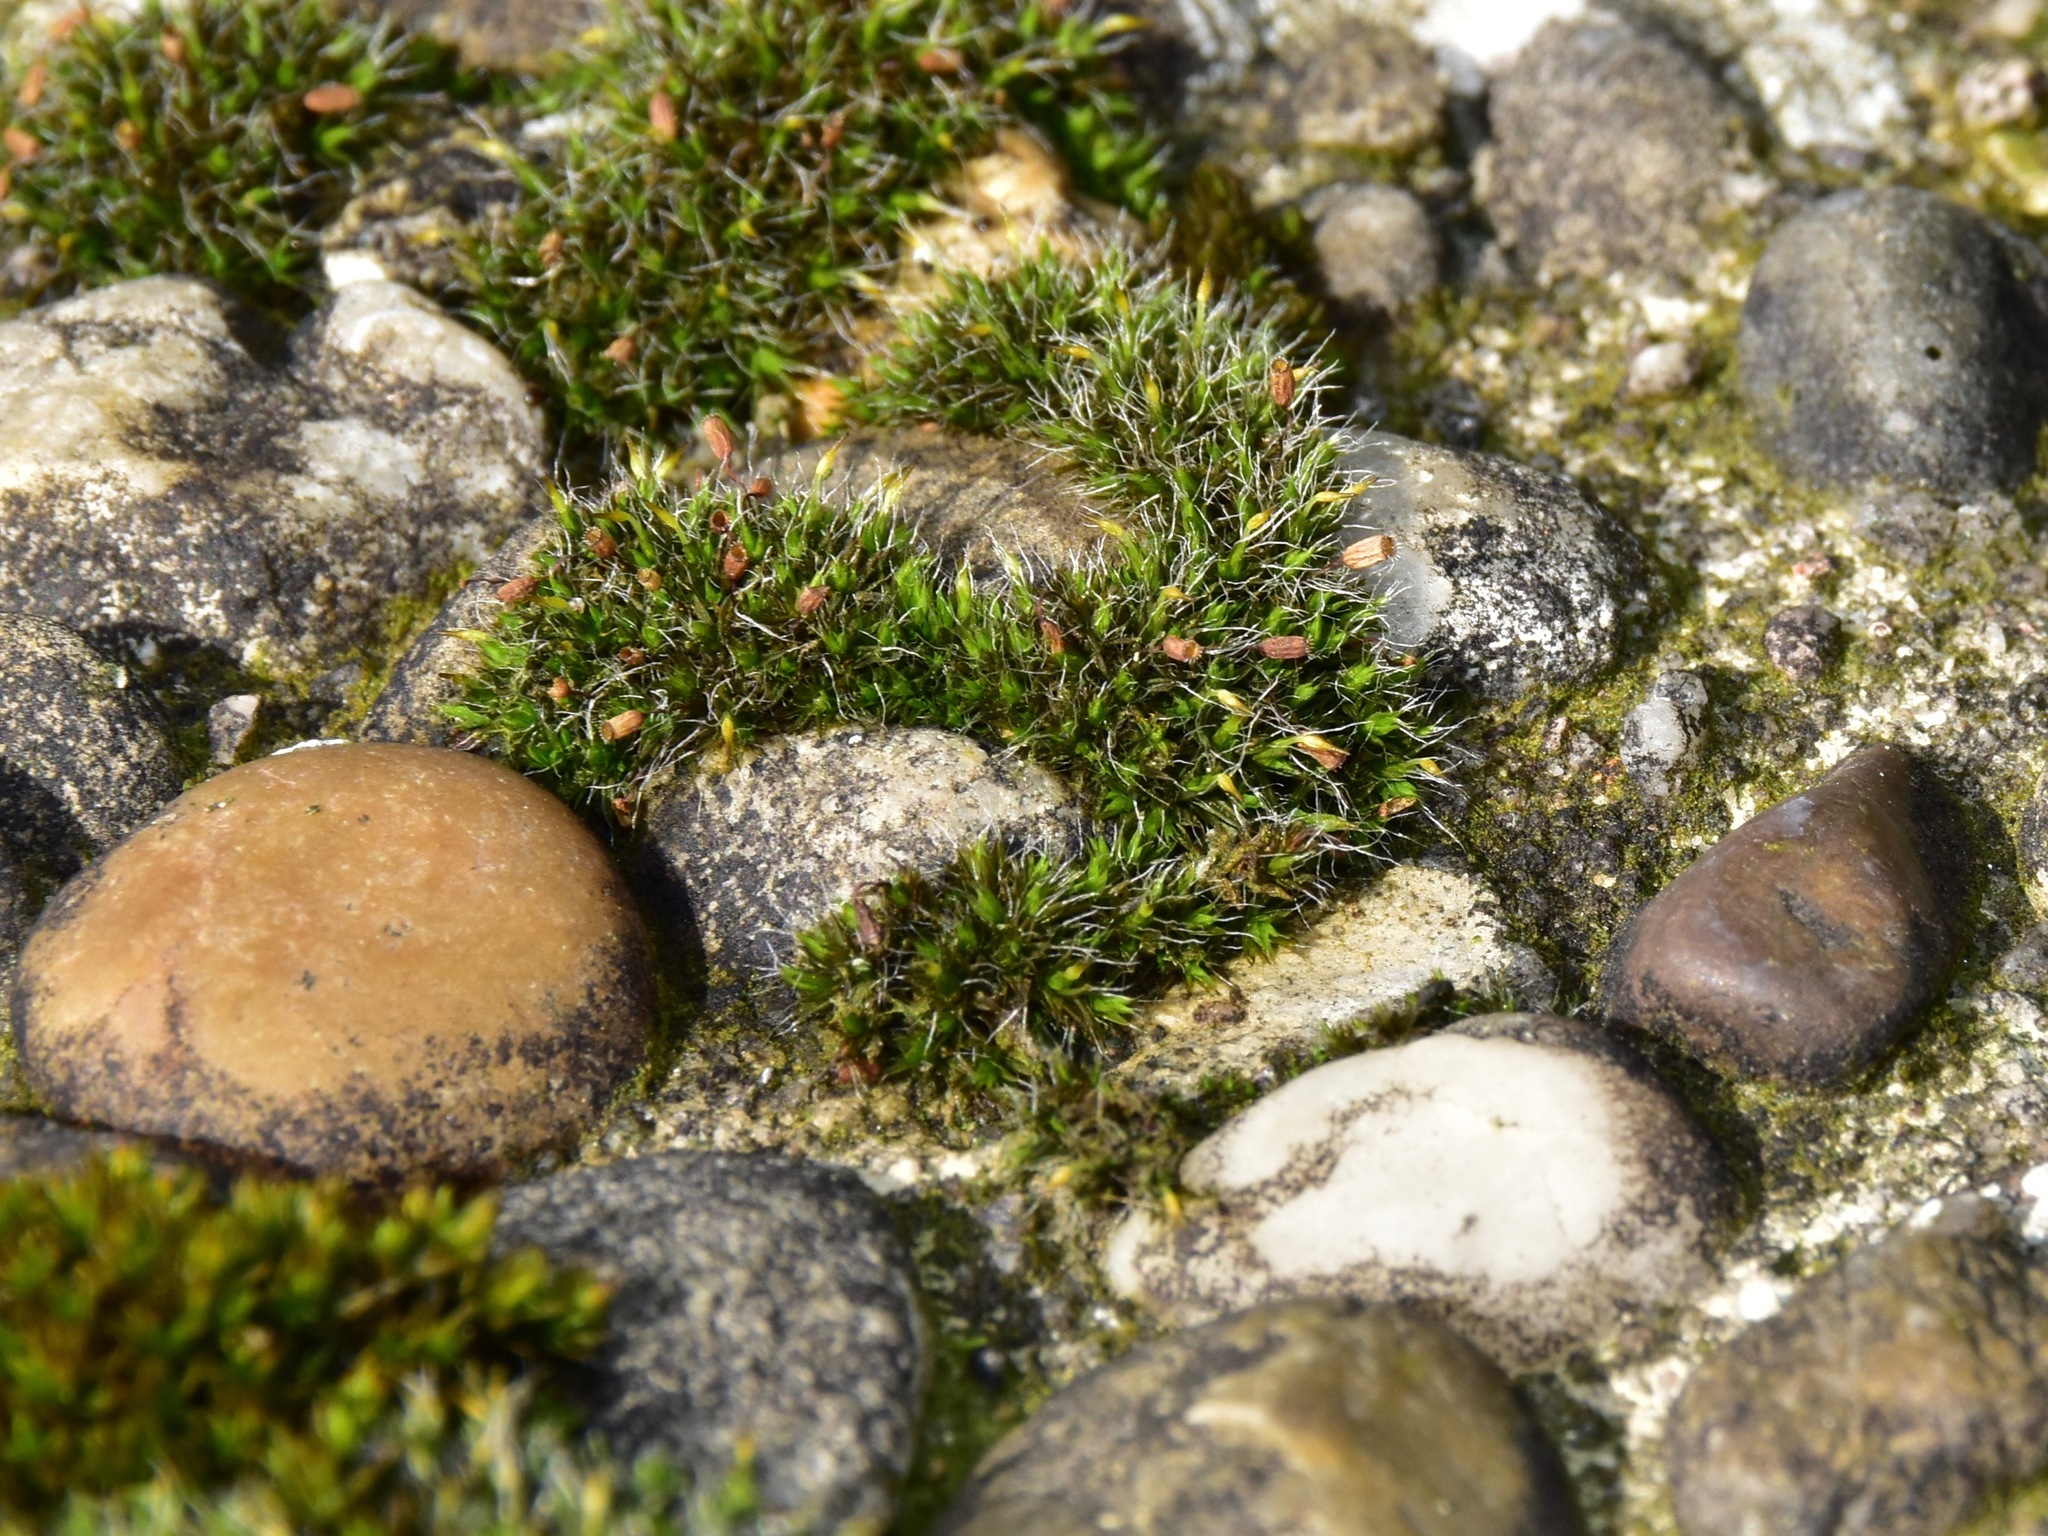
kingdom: Plantae
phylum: Bryophyta
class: Bryopsida
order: Grimmiales
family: Grimmiaceae
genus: Grimmia
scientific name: Grimmia pulvinata
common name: Grey-cushioned grimmia
